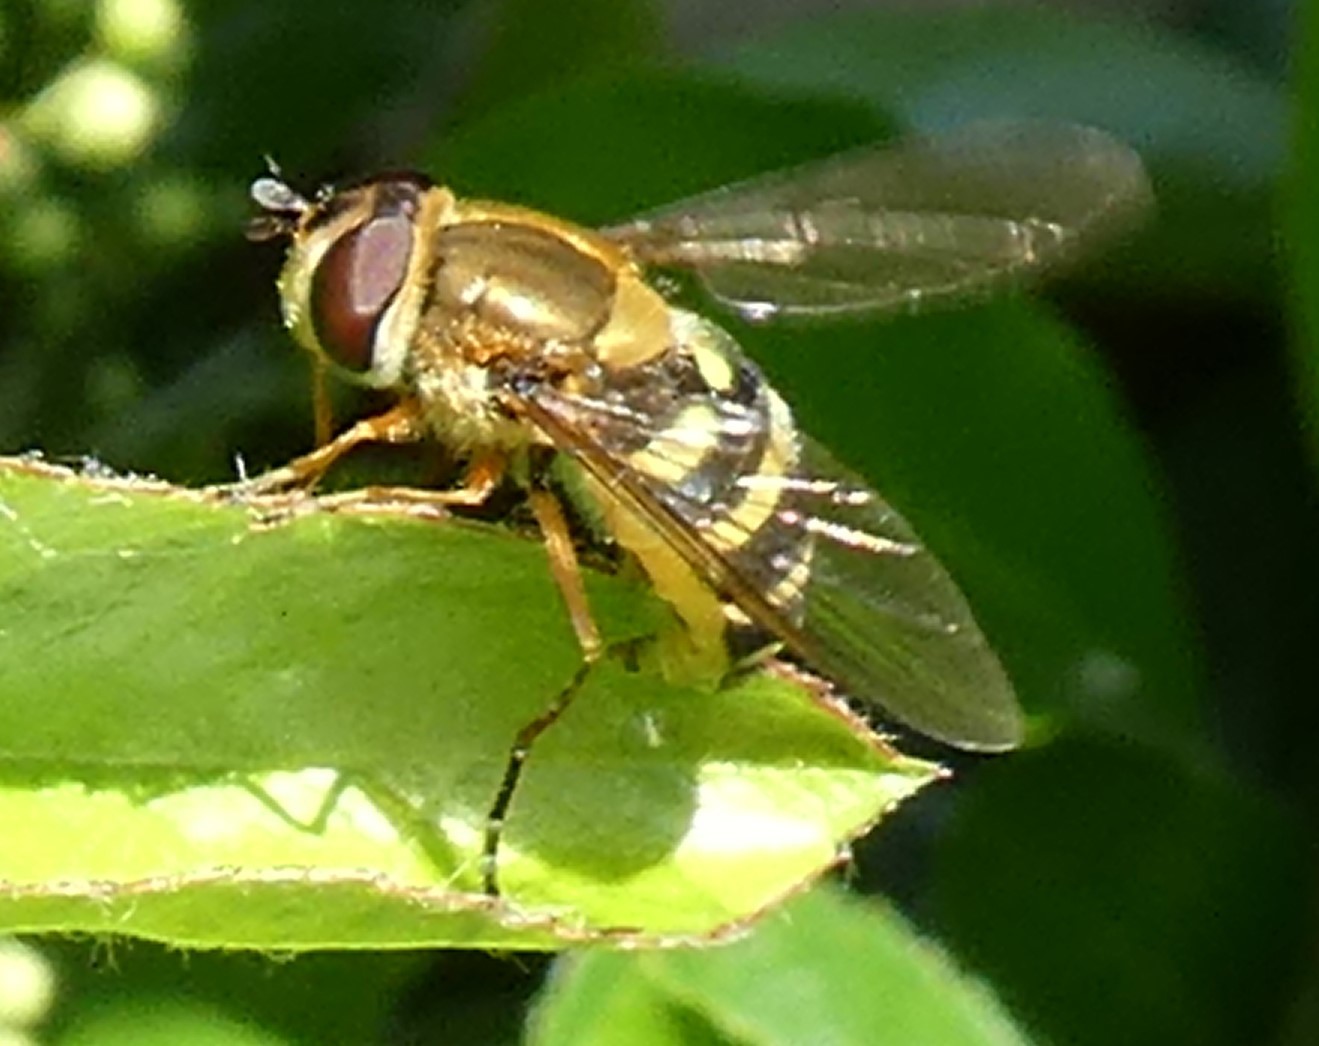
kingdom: Animalia
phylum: Arthropoda
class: Insecta
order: Diptera
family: Syrphidae
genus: Syrphus
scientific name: Syrphus ribesii
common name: Common flower fly
